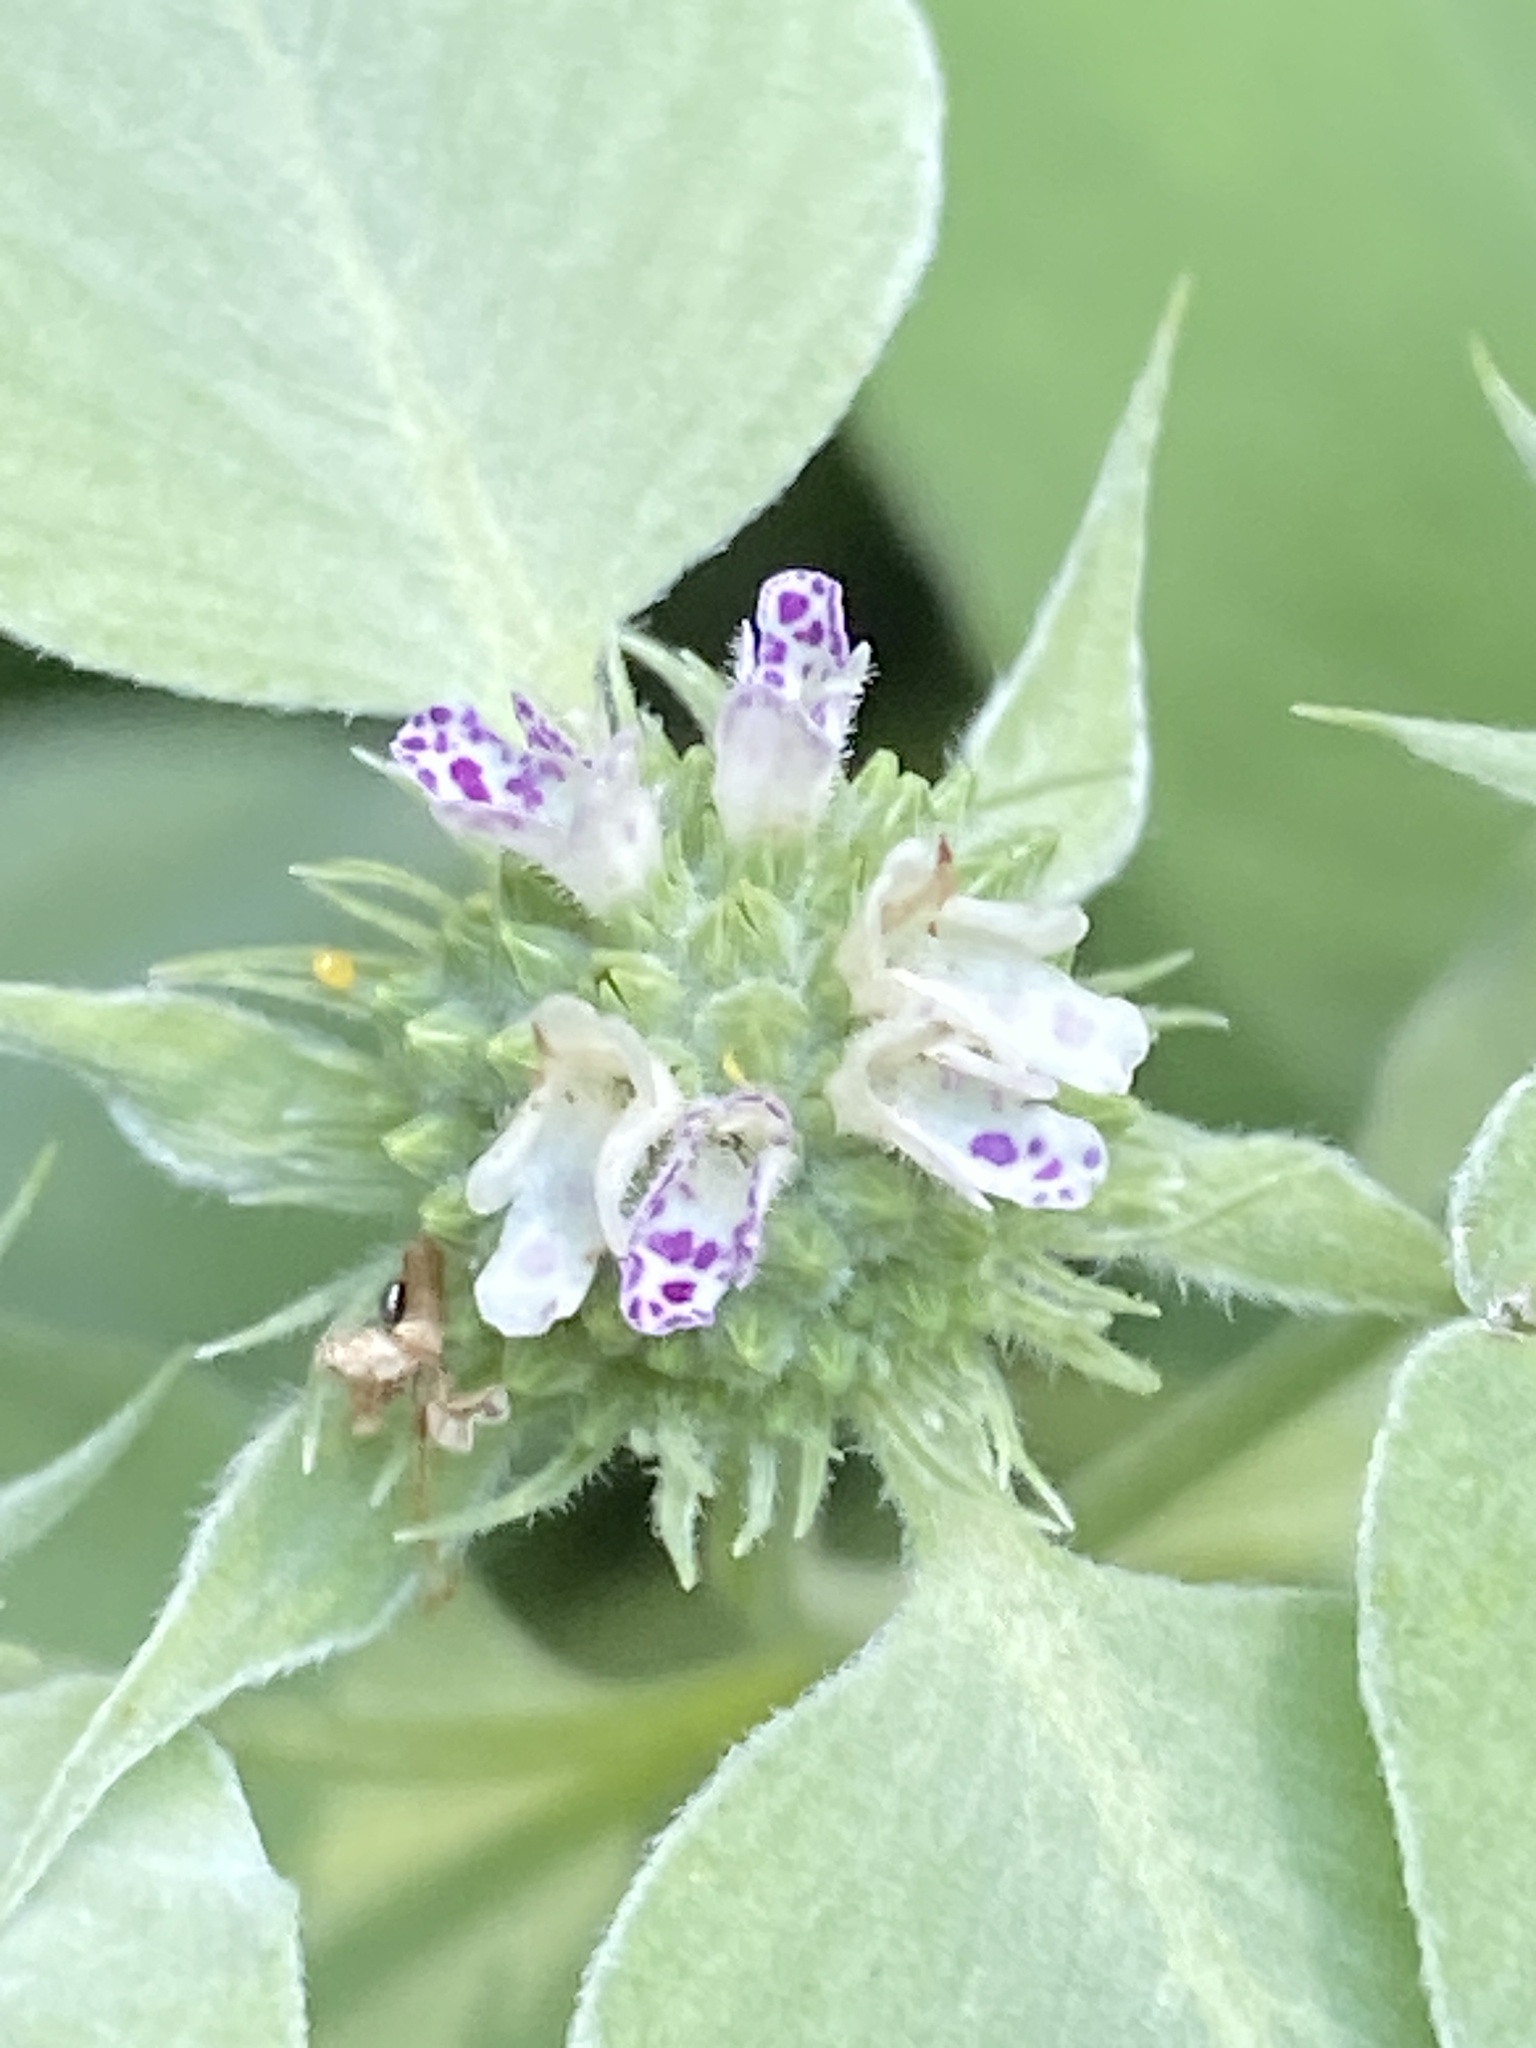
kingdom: Plantae
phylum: Tracheophyta
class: Magnoliopsida
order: Lamiales
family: Lamiaceae
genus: Pycnanthemum
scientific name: Pycnanthemum muticum
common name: Blunt mountain-mint
